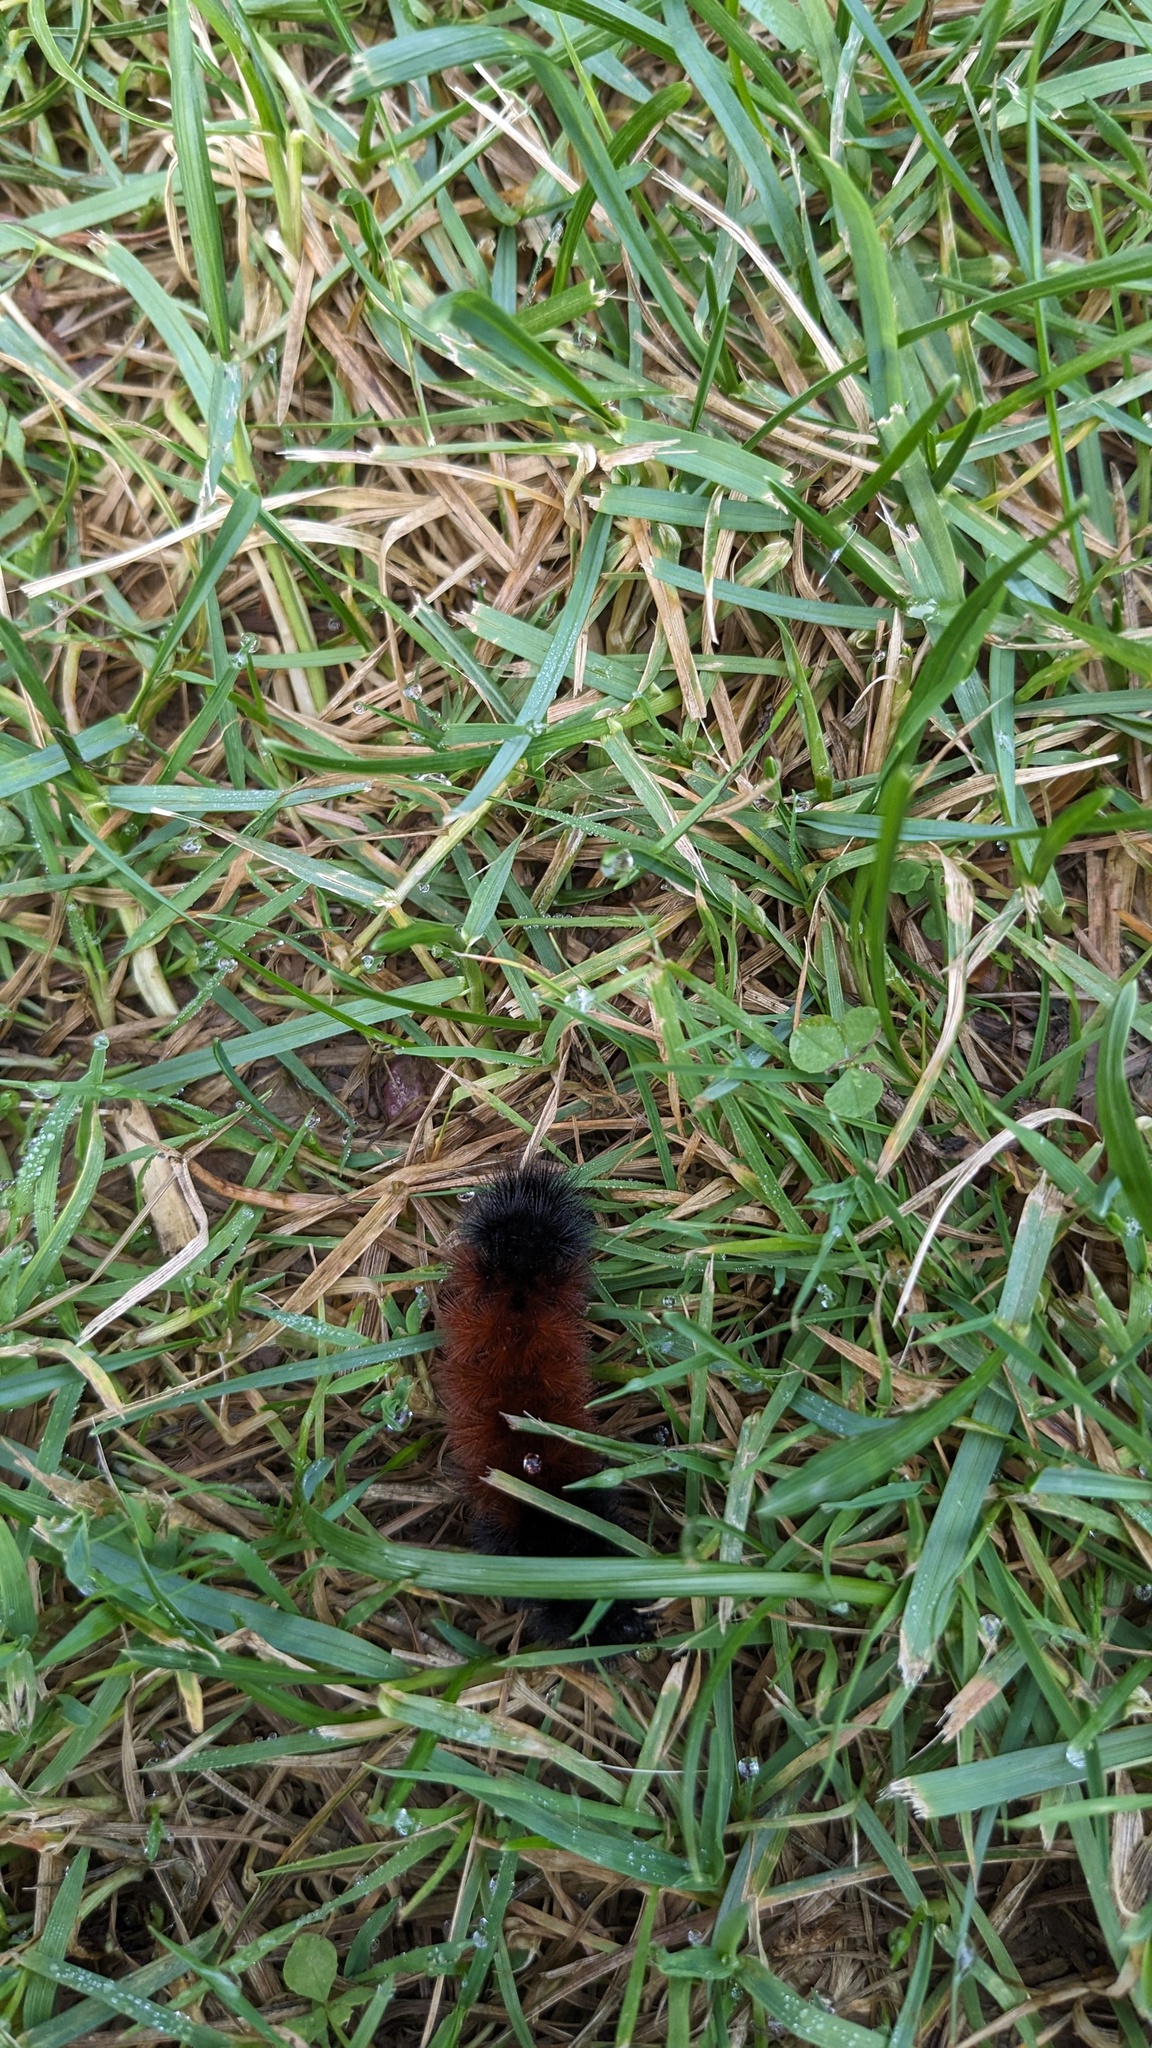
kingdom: Animalia
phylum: Arthropoda
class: Insecta
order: Lepidoptera
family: Erebidae
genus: Pyrrharctia
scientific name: Pyrrharctia isabella
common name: Isabella tiger moth
